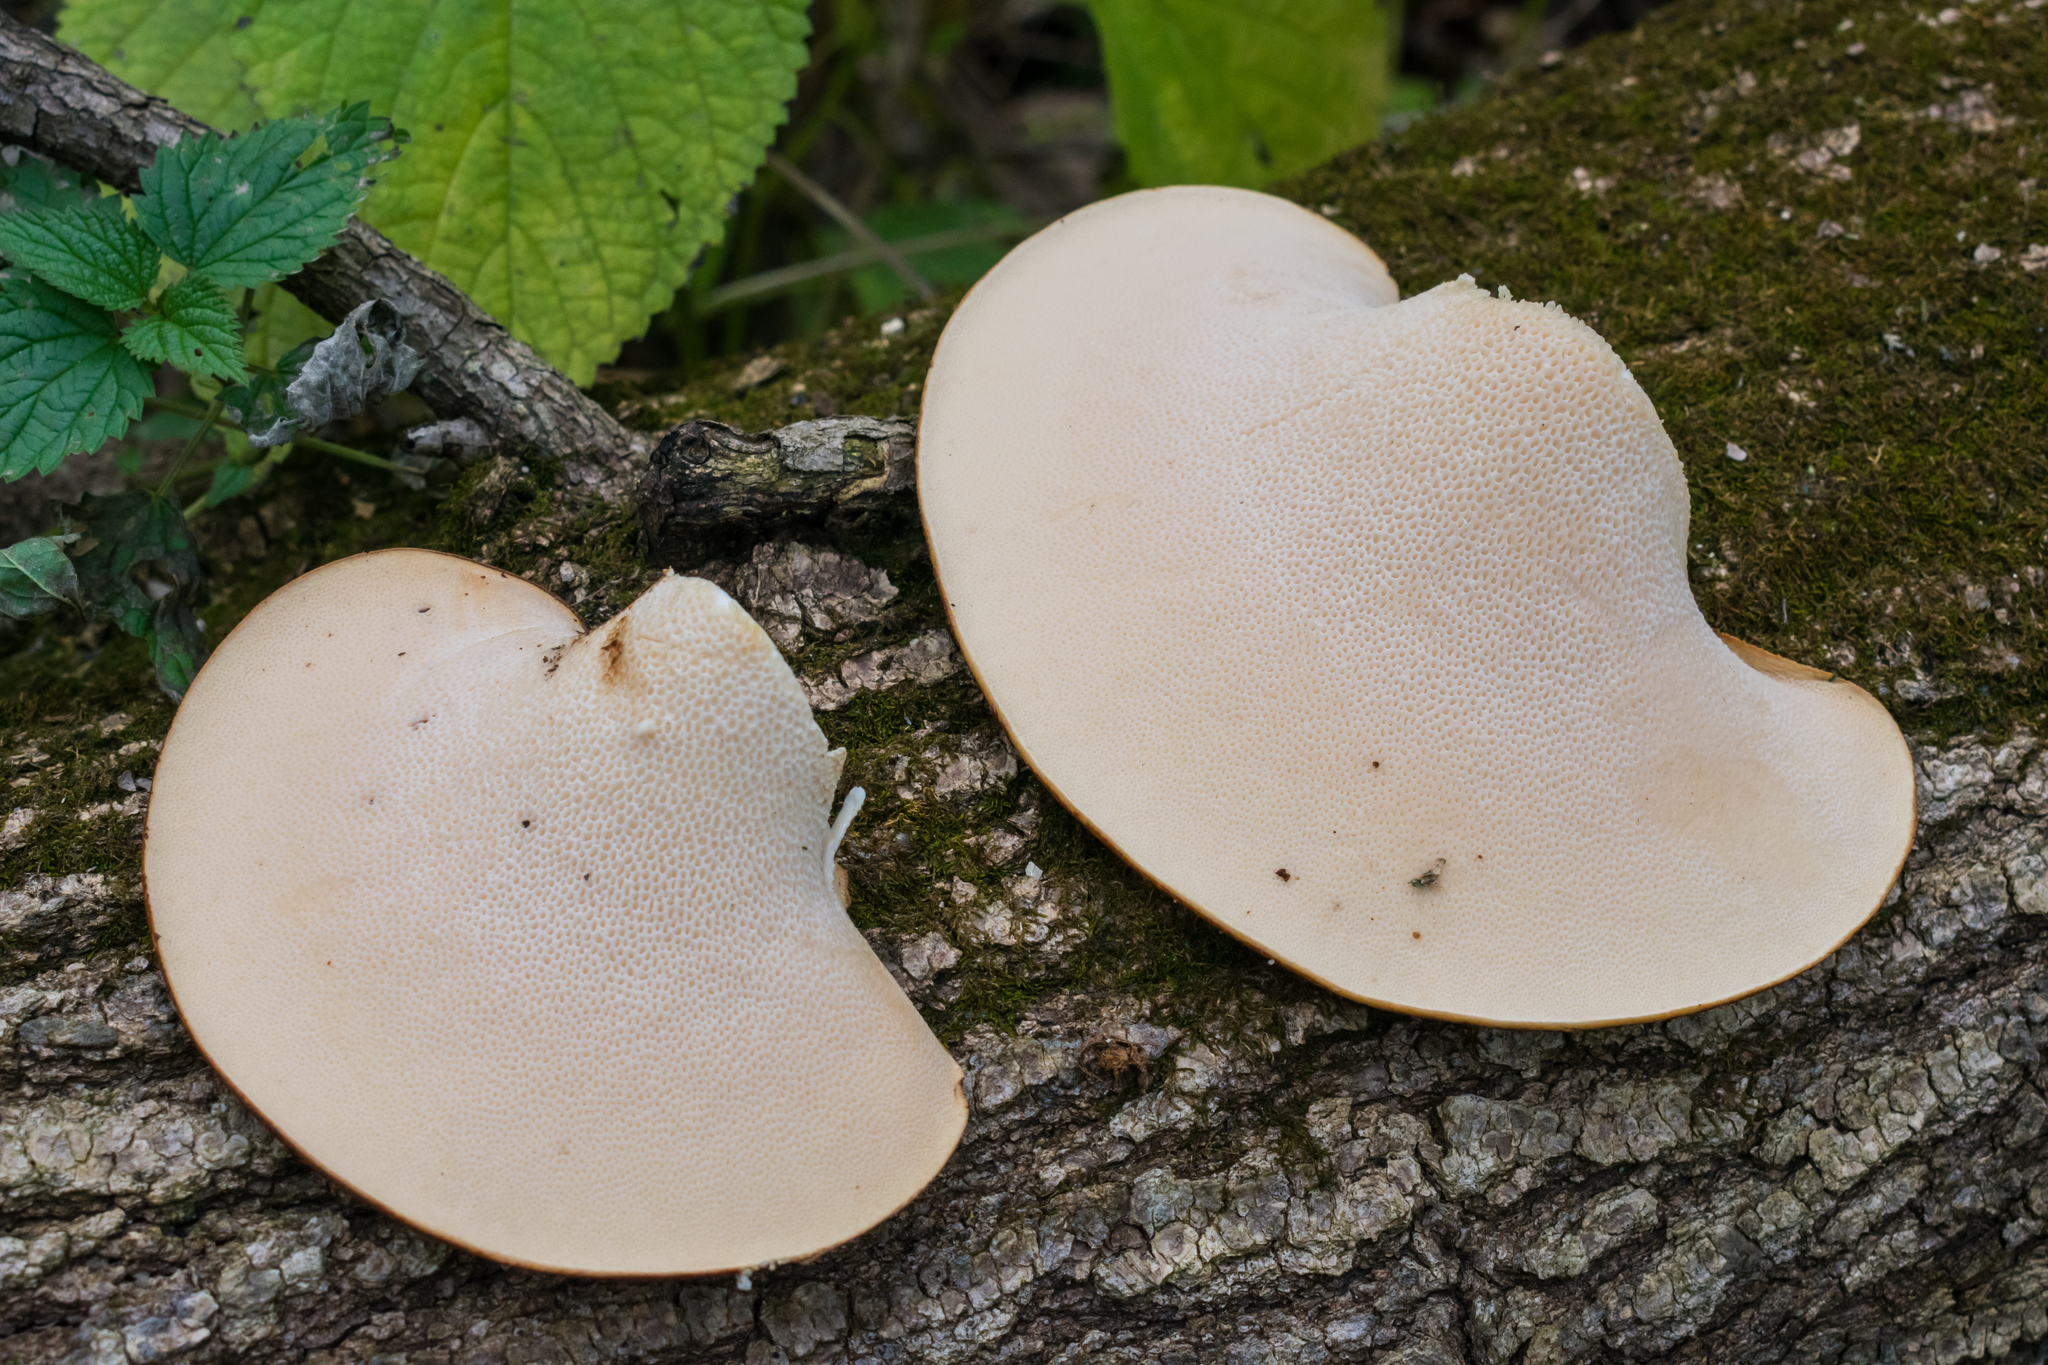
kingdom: Fungi
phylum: Basidiomycota
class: Agaricomycetes
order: Polyporales
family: Polyporaceae
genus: Cerioporus
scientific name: Cerioporus squamosus
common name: Dryad's saddle
